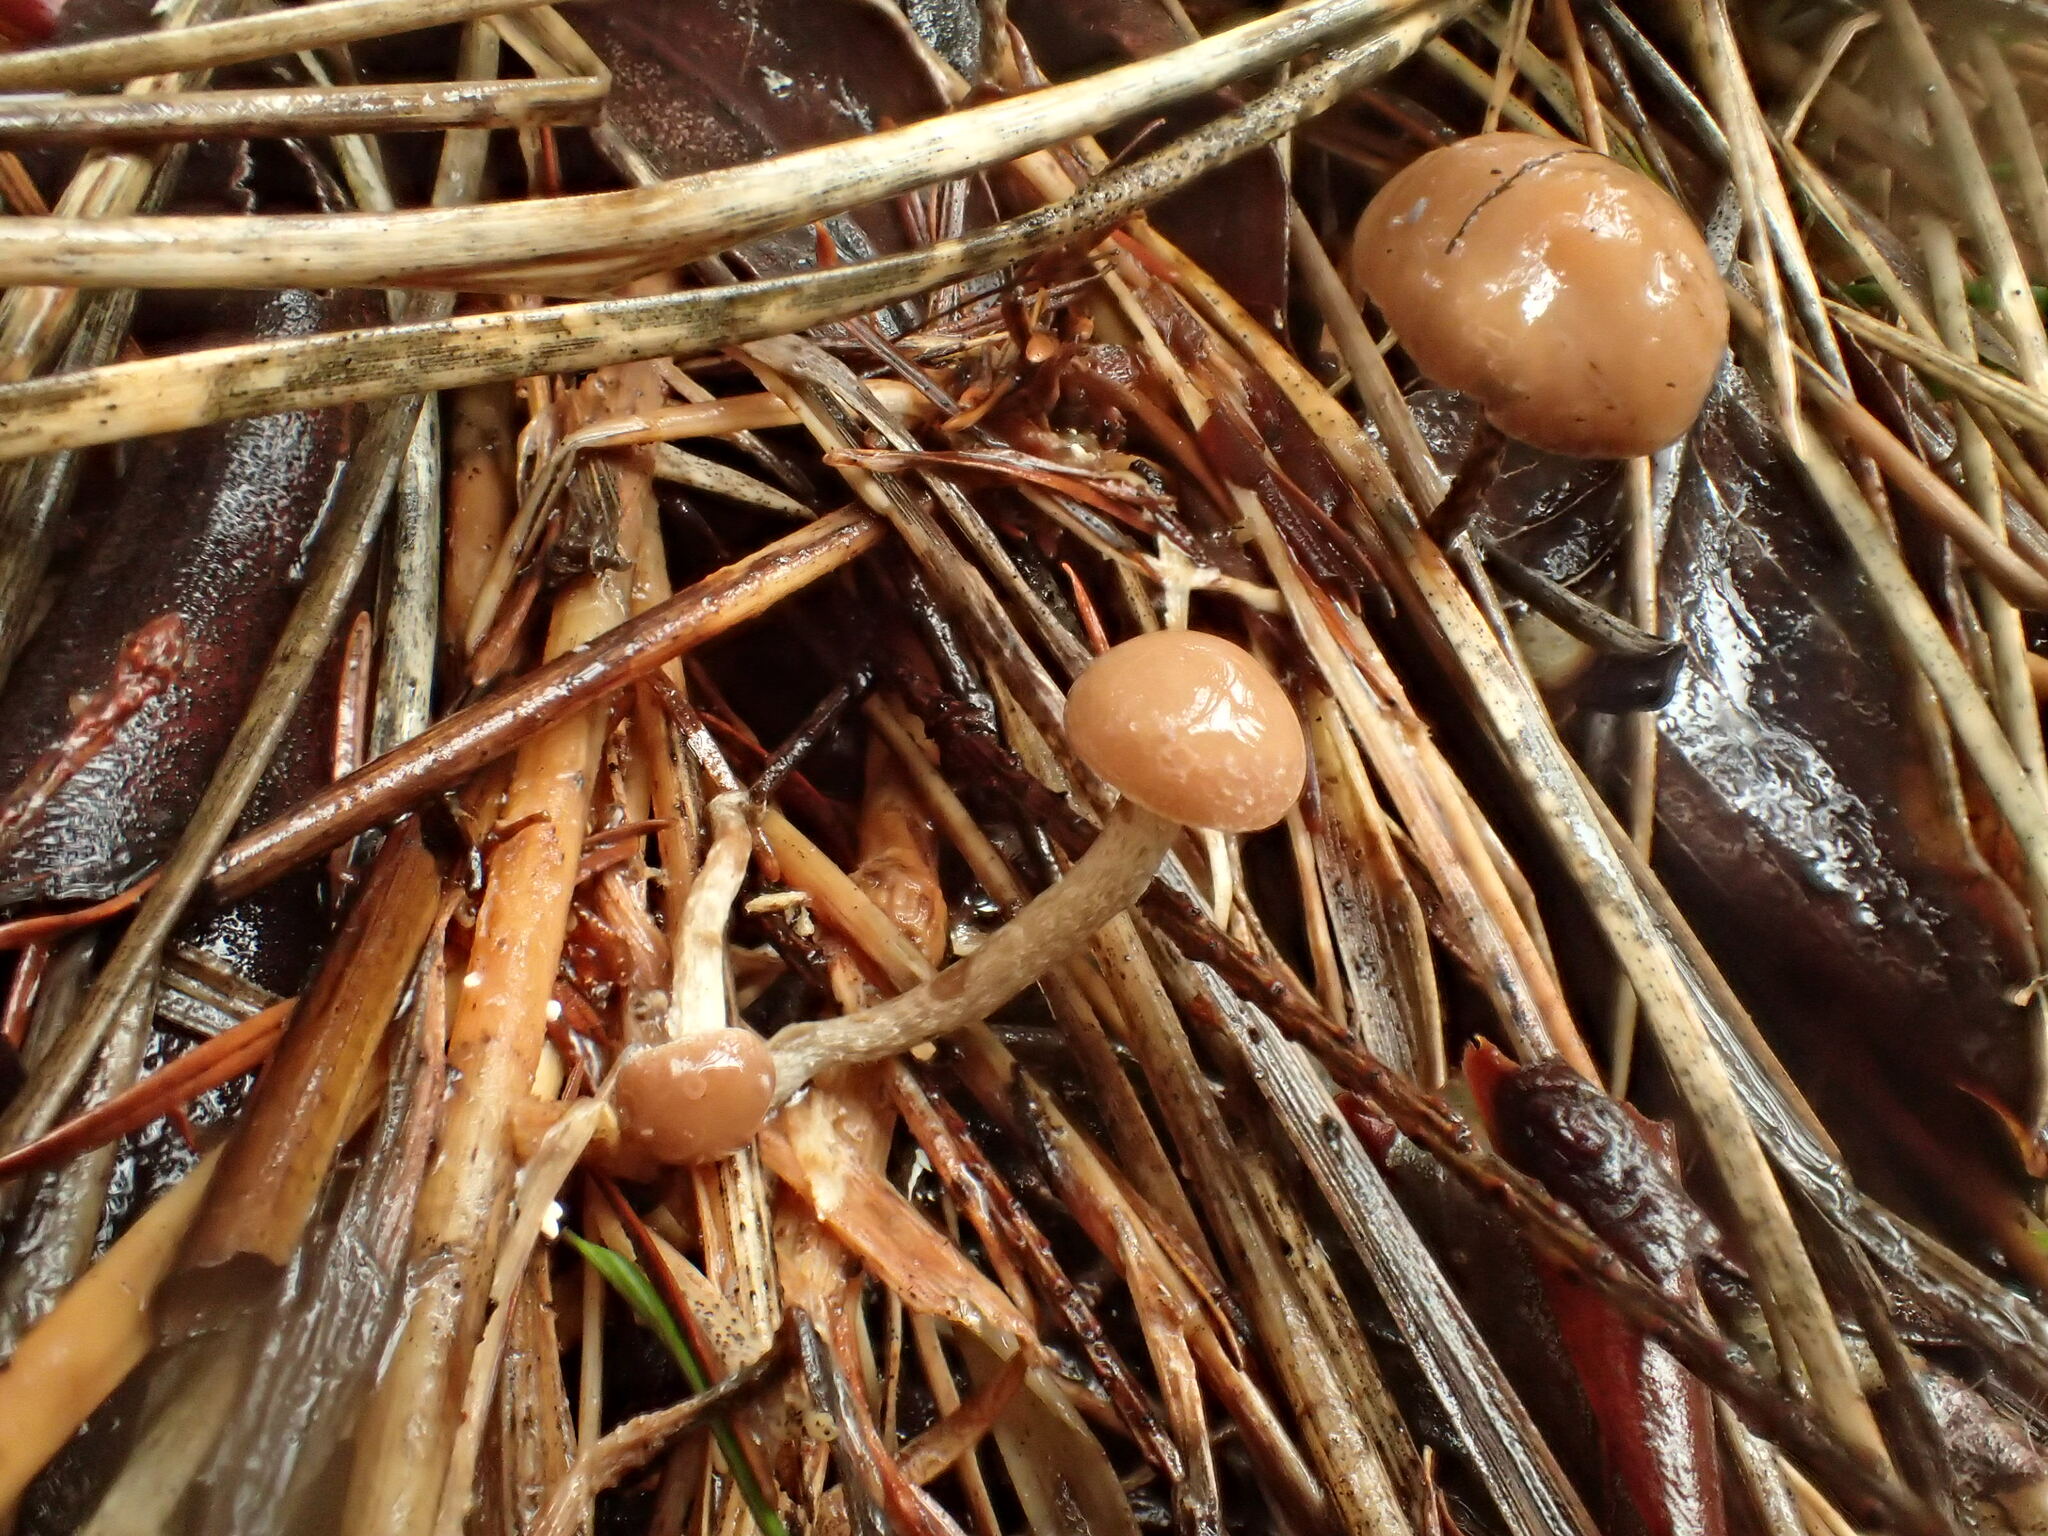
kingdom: Fungi
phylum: Basidiomycota
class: Agaricomycetes
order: Agaricales
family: Strophariaceae
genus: Deconica
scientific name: Deconica inquilina
